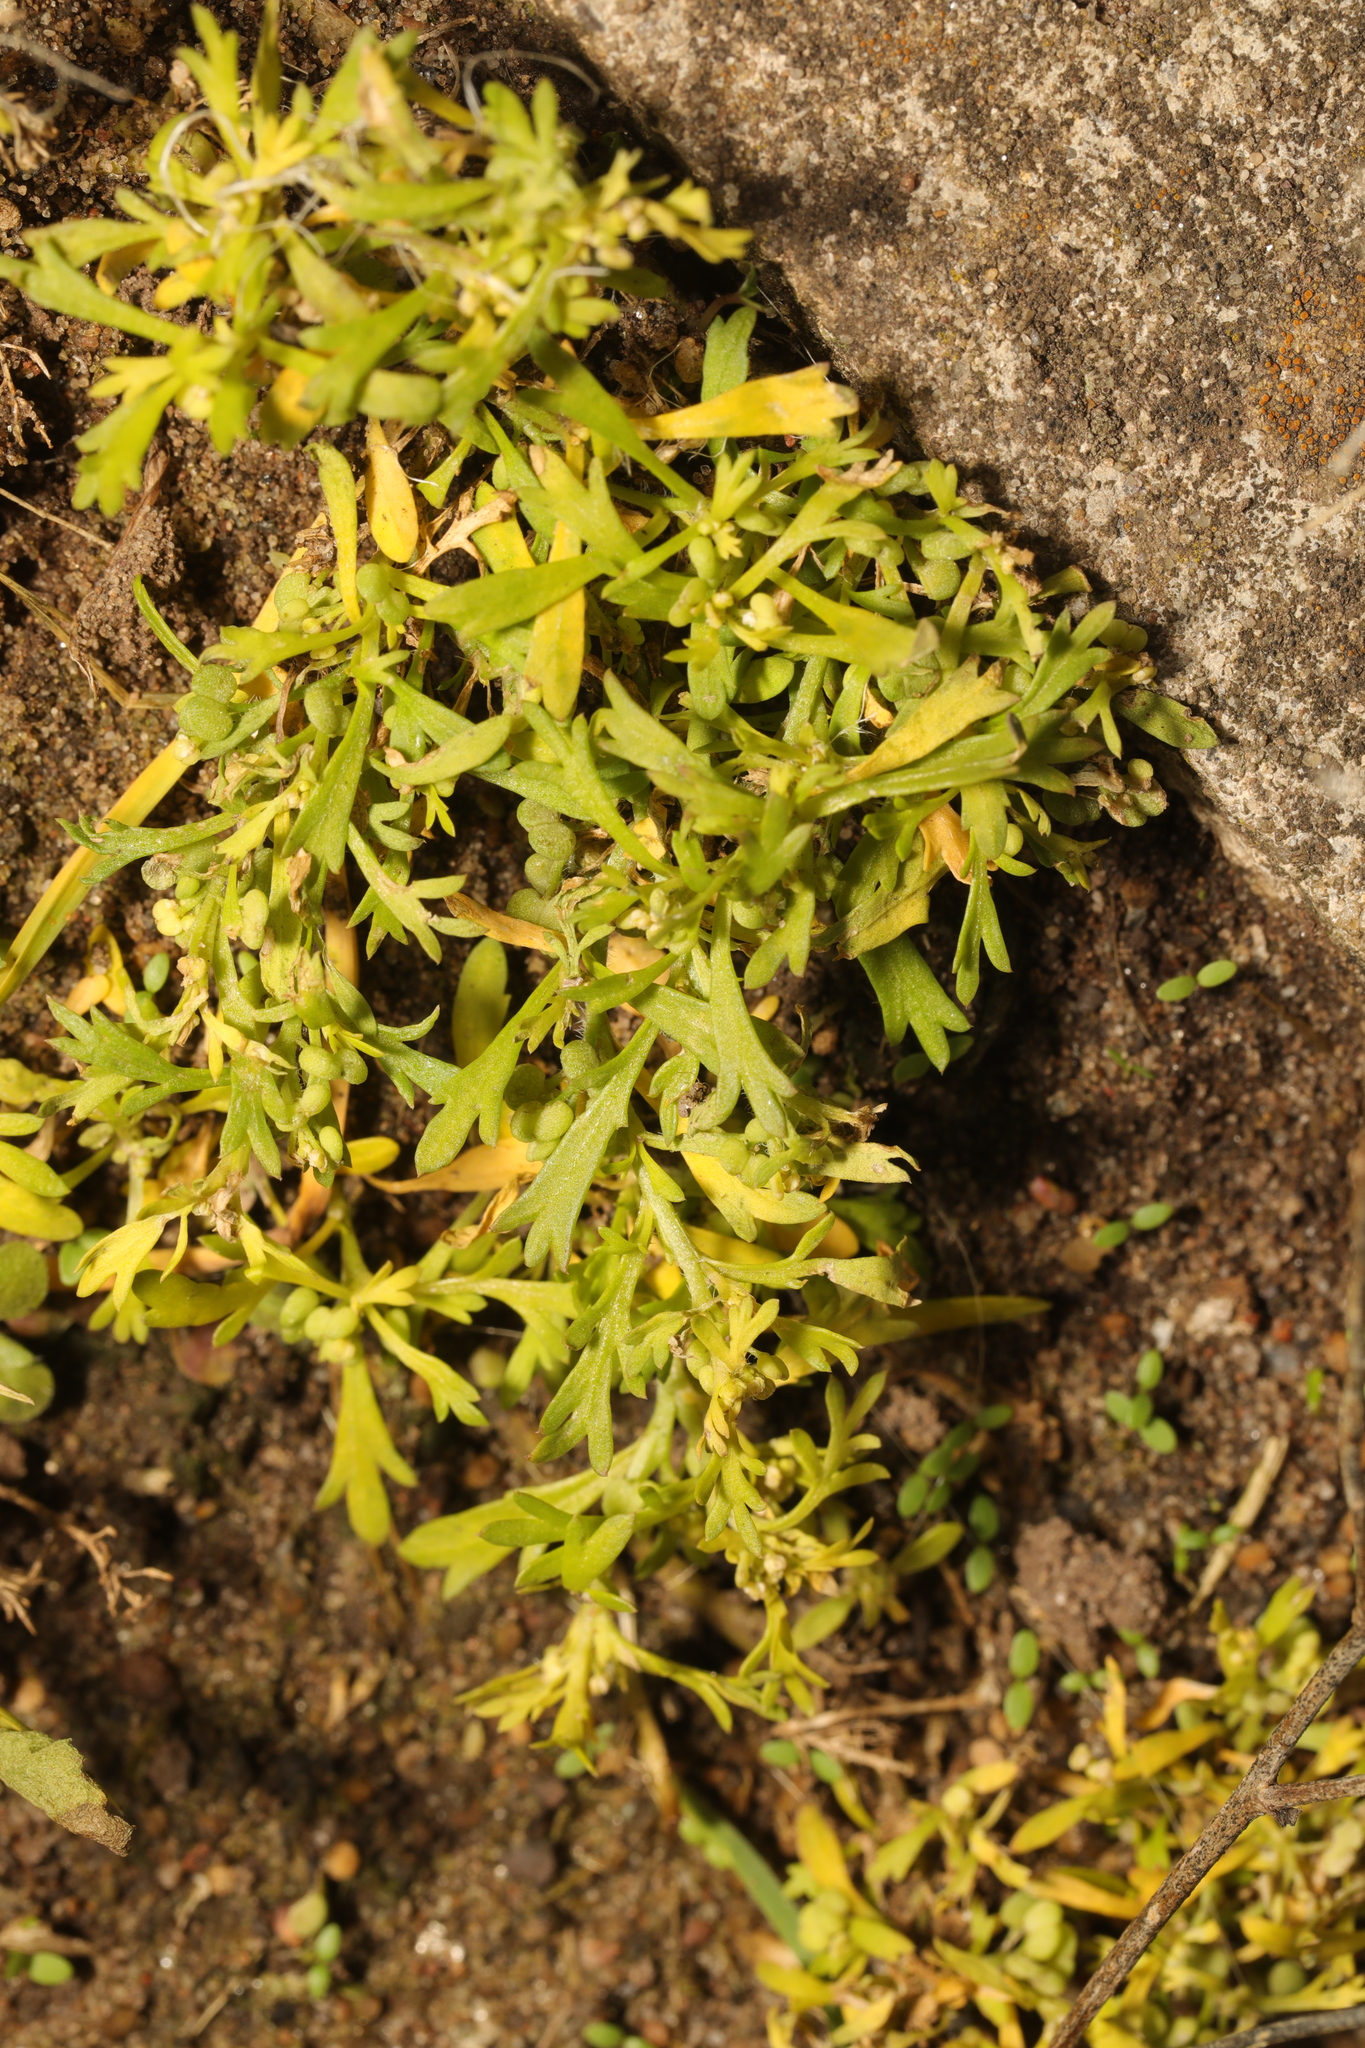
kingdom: Plantae
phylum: Tracheophyta
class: Magnoliopsida
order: Brassicales
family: Brassicaceae
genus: Lepidium
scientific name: Lepidium didymum
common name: Lesser swinecress
